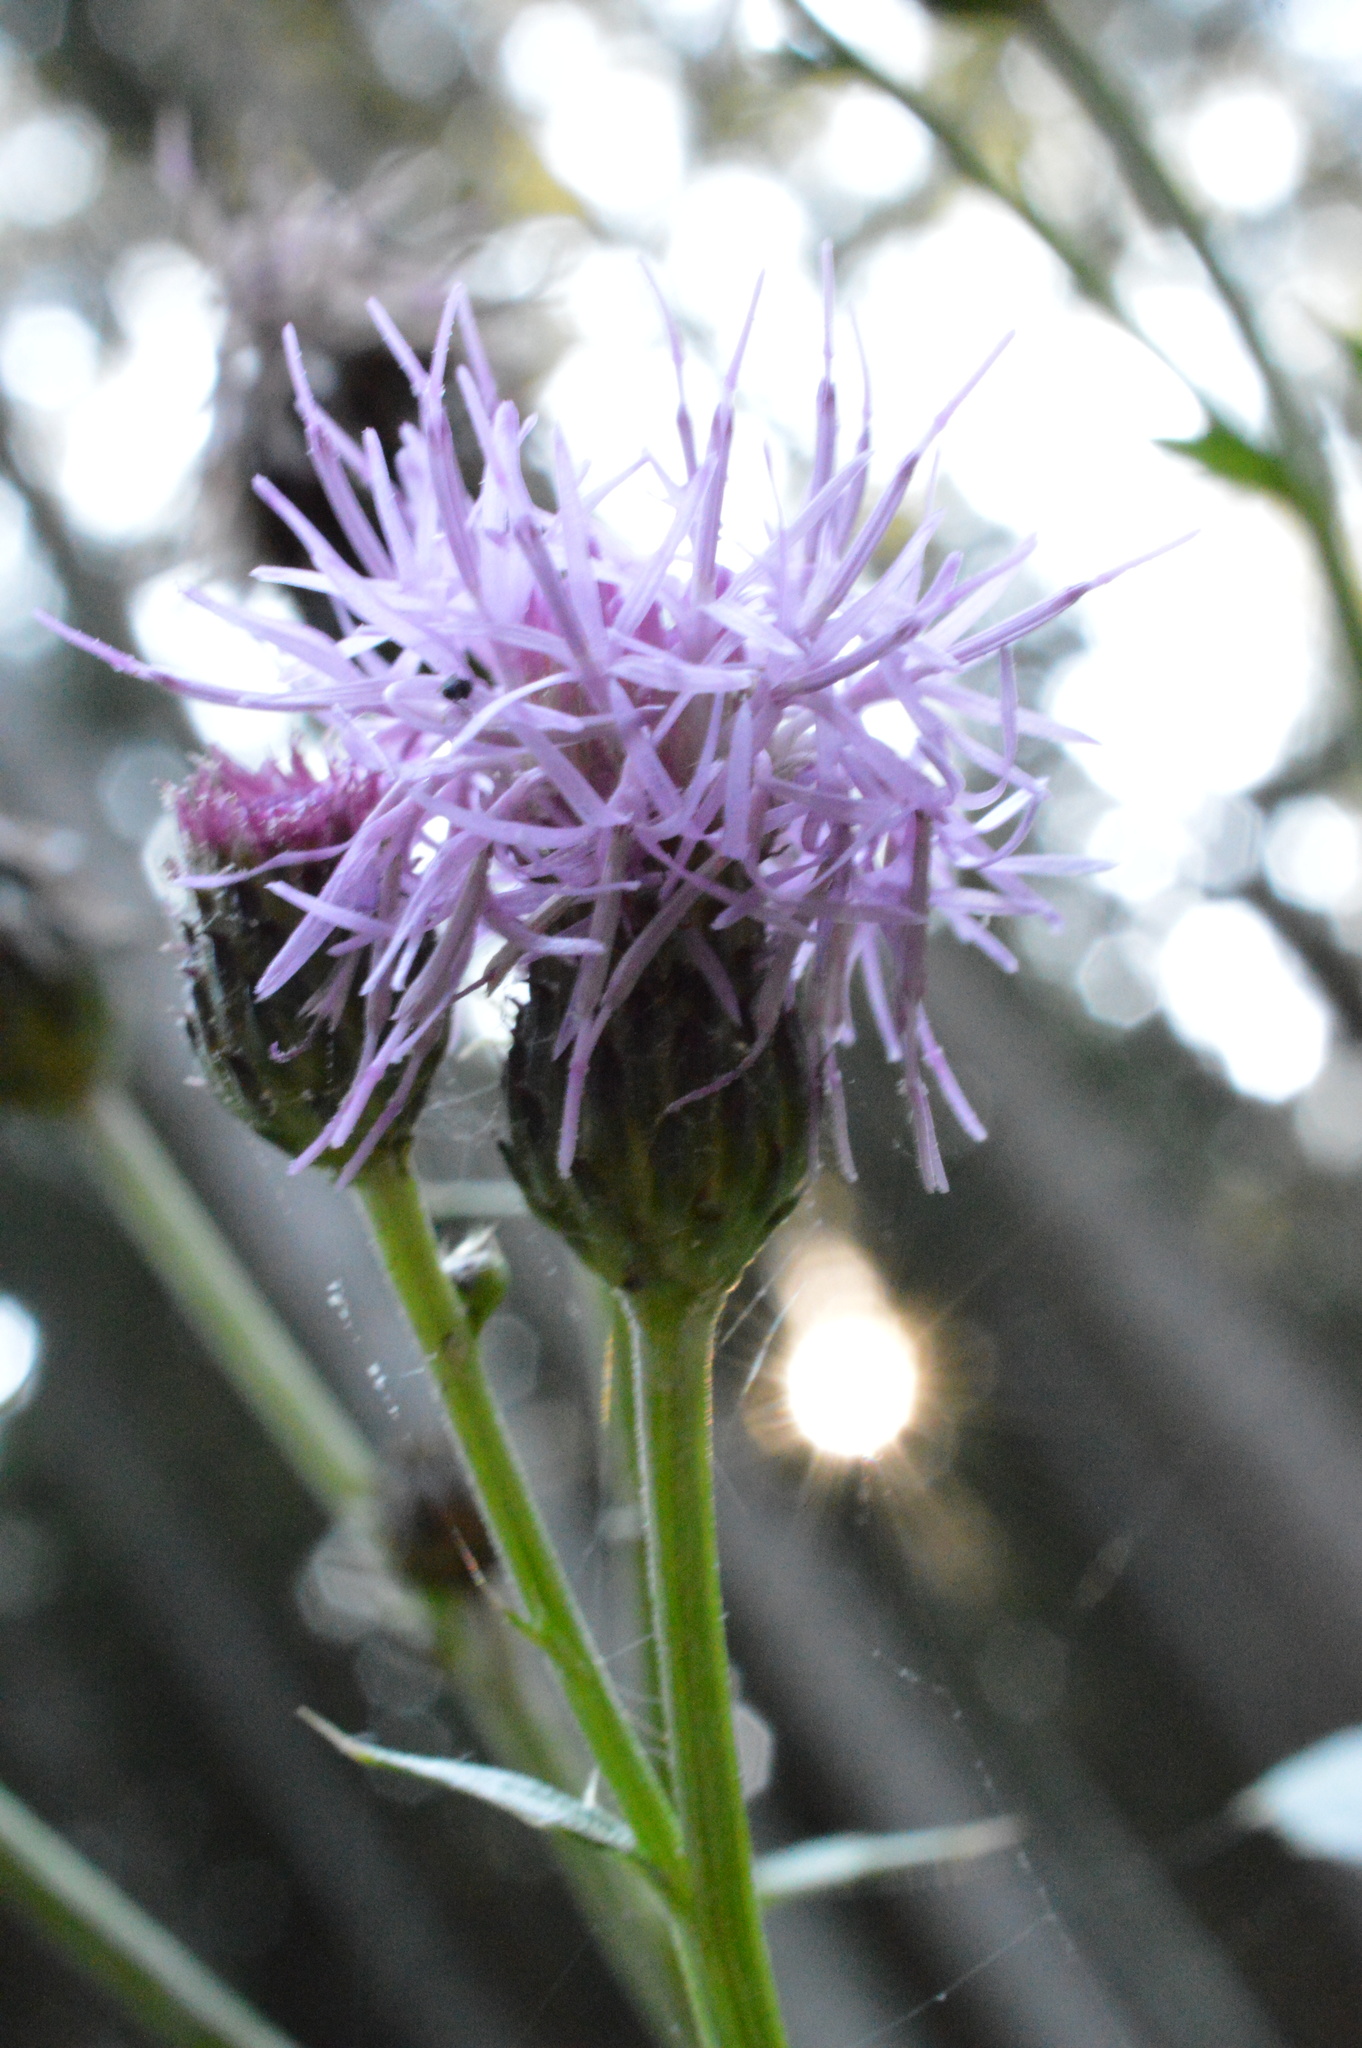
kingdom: Plantae
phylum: Tracheophyta
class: Magnoliopsida
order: Asterales
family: Asteraceae
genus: Cirsium
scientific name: Cirsium arvense
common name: Creeping thistle
